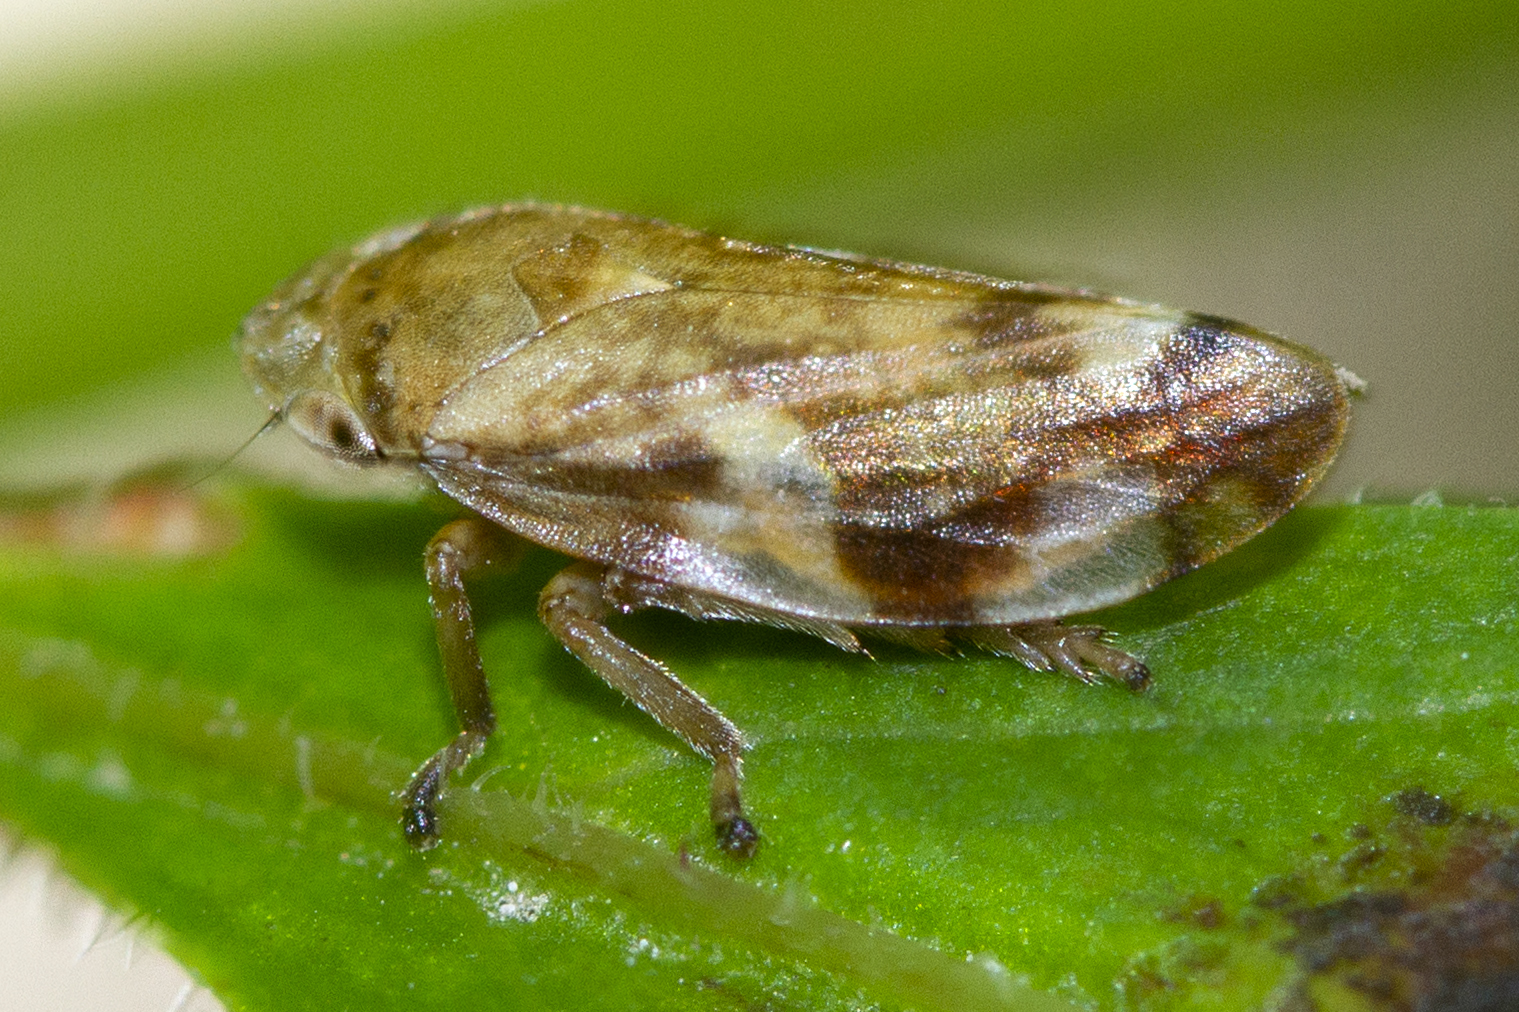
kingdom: Animalia
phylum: Arthropoda
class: Insecta
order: Hemiptera
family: Aphrophoridae
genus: Philaenus
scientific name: Philaenus spumarius
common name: Meadow spittlebug
